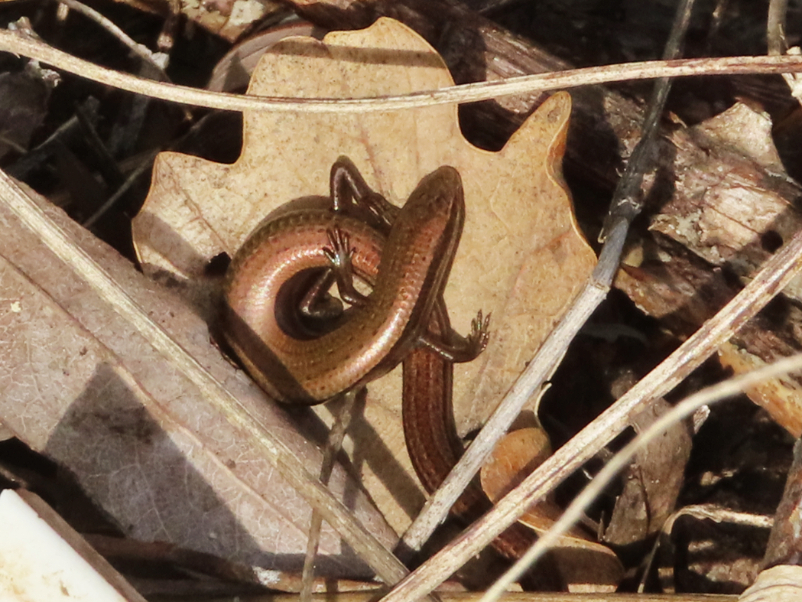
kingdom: Animalia
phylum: Chordata
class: Squamata
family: Scincidae
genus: Ablepharus
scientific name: Ablepharus kitaibelii
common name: Juniper skink
